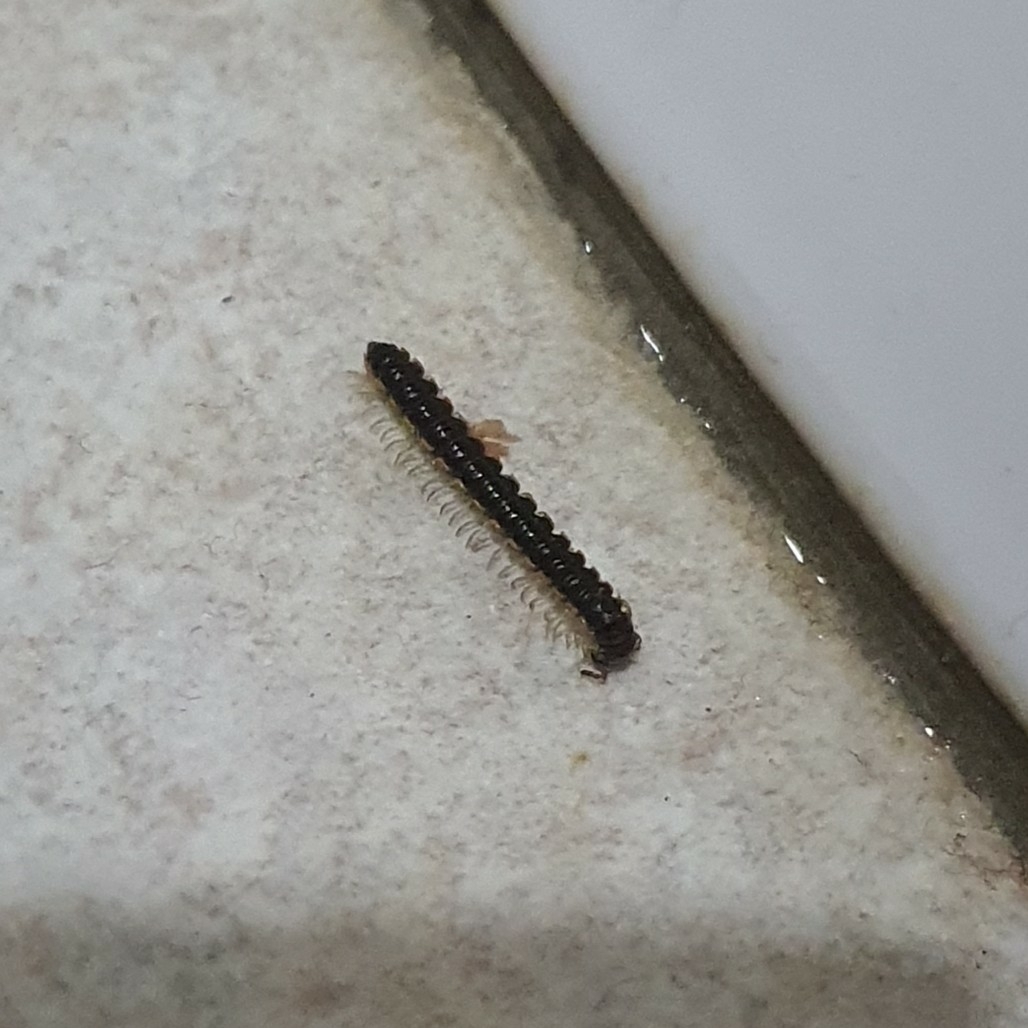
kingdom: Animalia
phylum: Arthropoda
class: Diplopoda
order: Polydesmida
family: Paradoxosomatidae
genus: Oxidus
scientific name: Oxidus gracilis
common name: Greenhouse millipede
